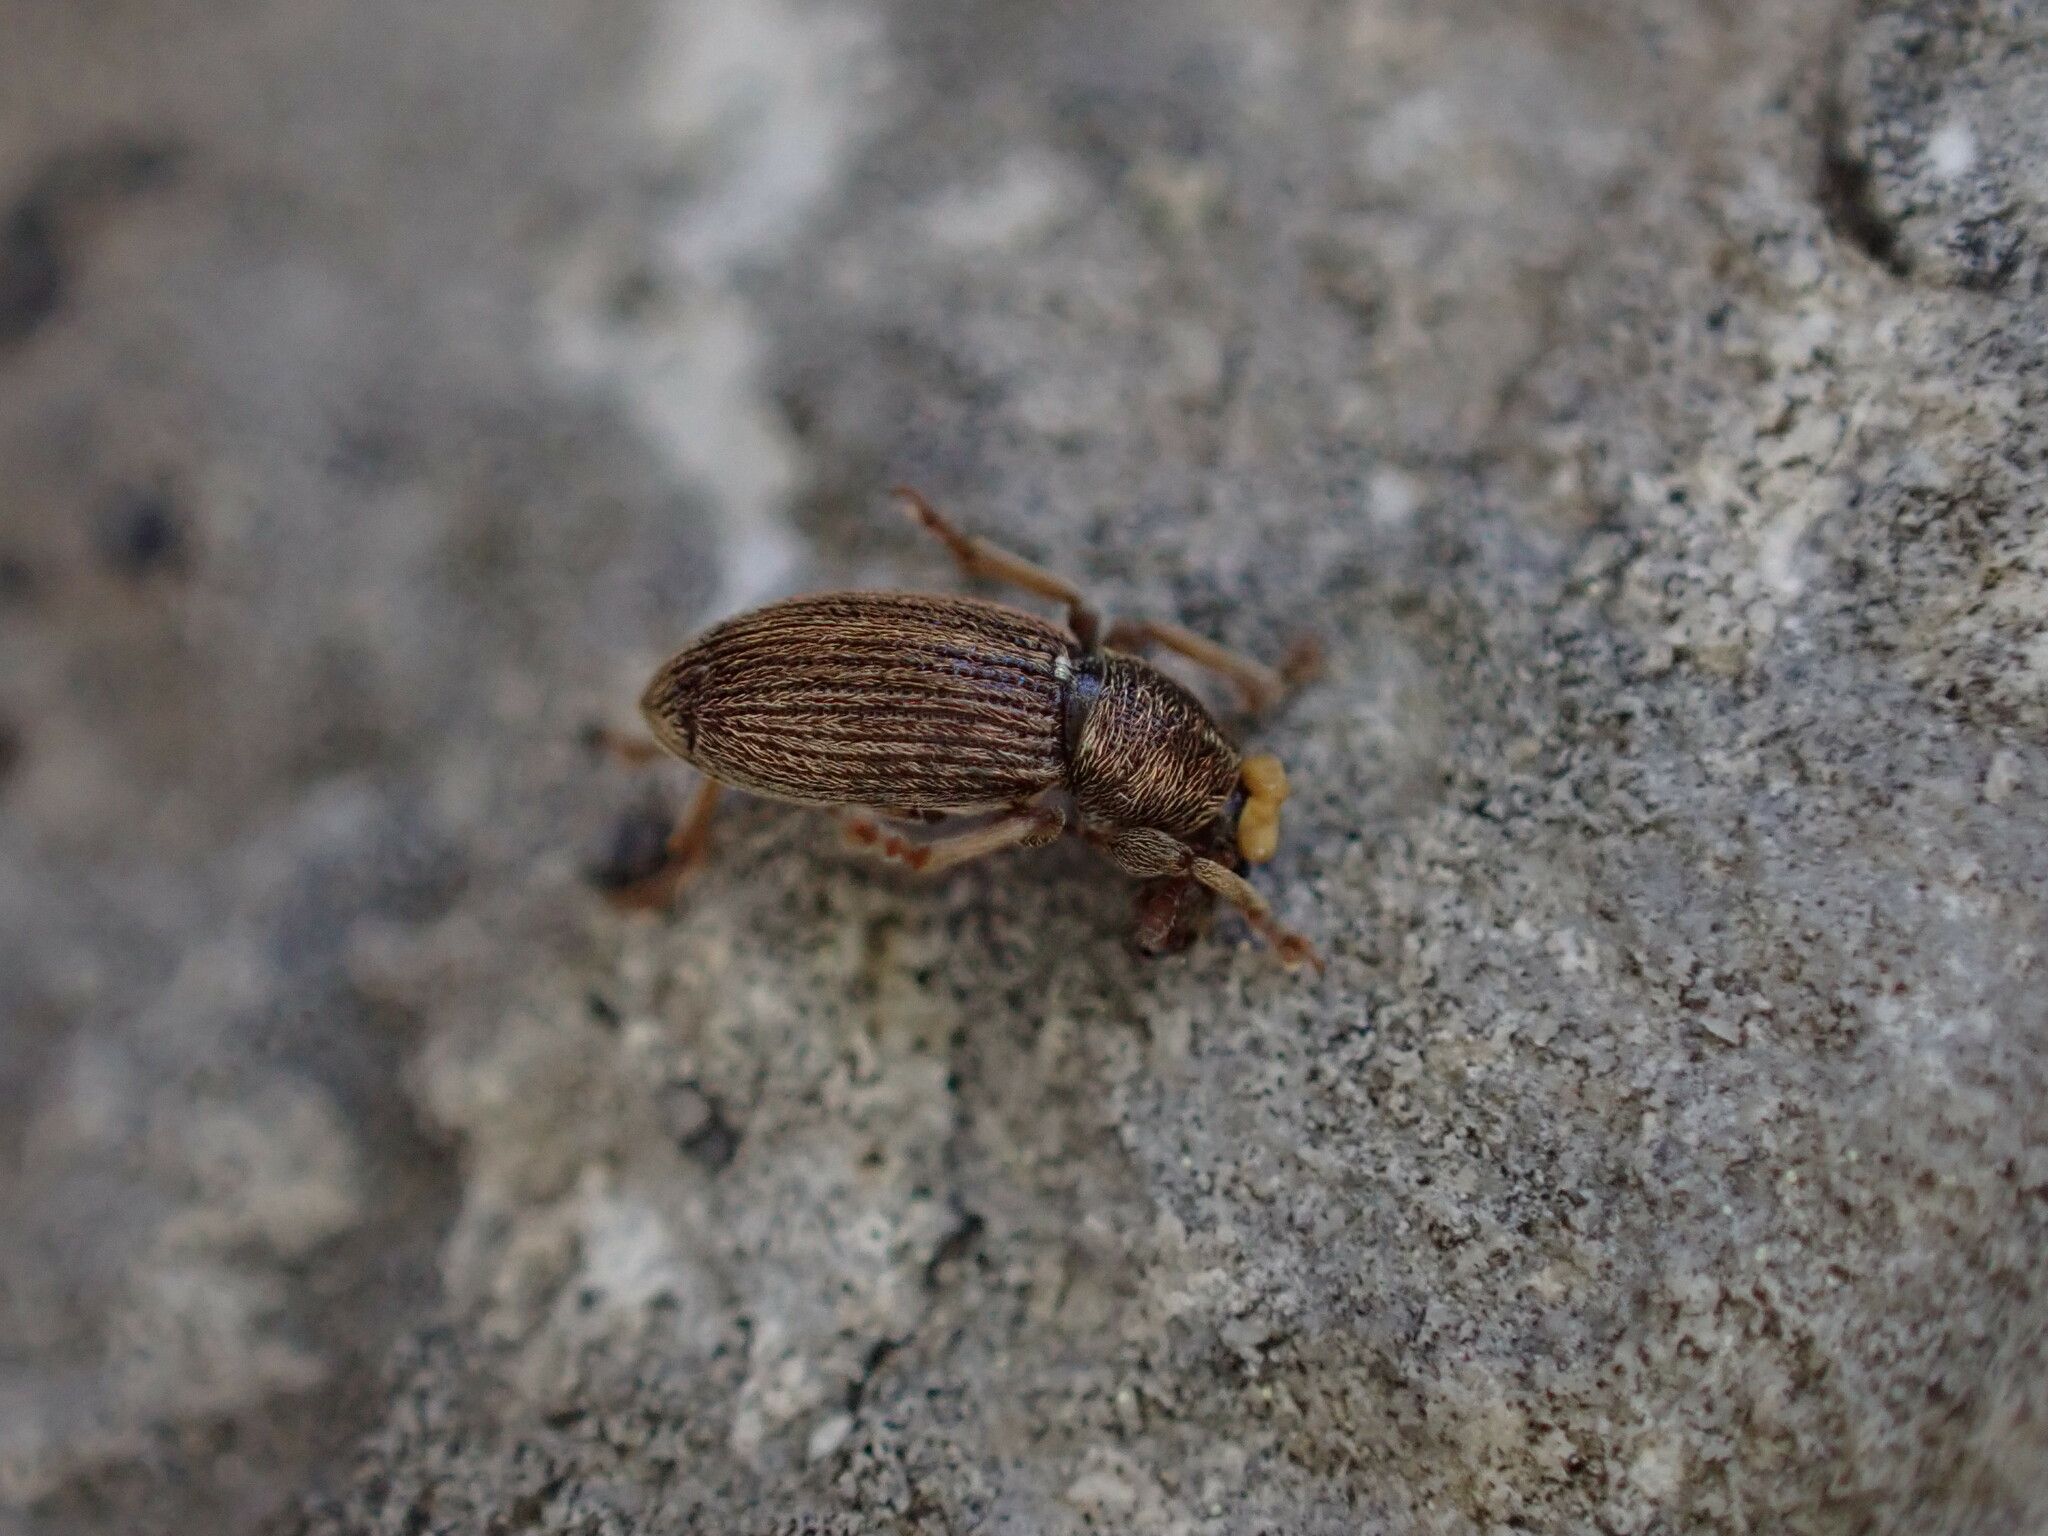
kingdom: Animalia
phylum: Arthropoda
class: Insecta
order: Coleoptera
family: Curculionidae
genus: Polydrusus
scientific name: Polydrusus marginatus
